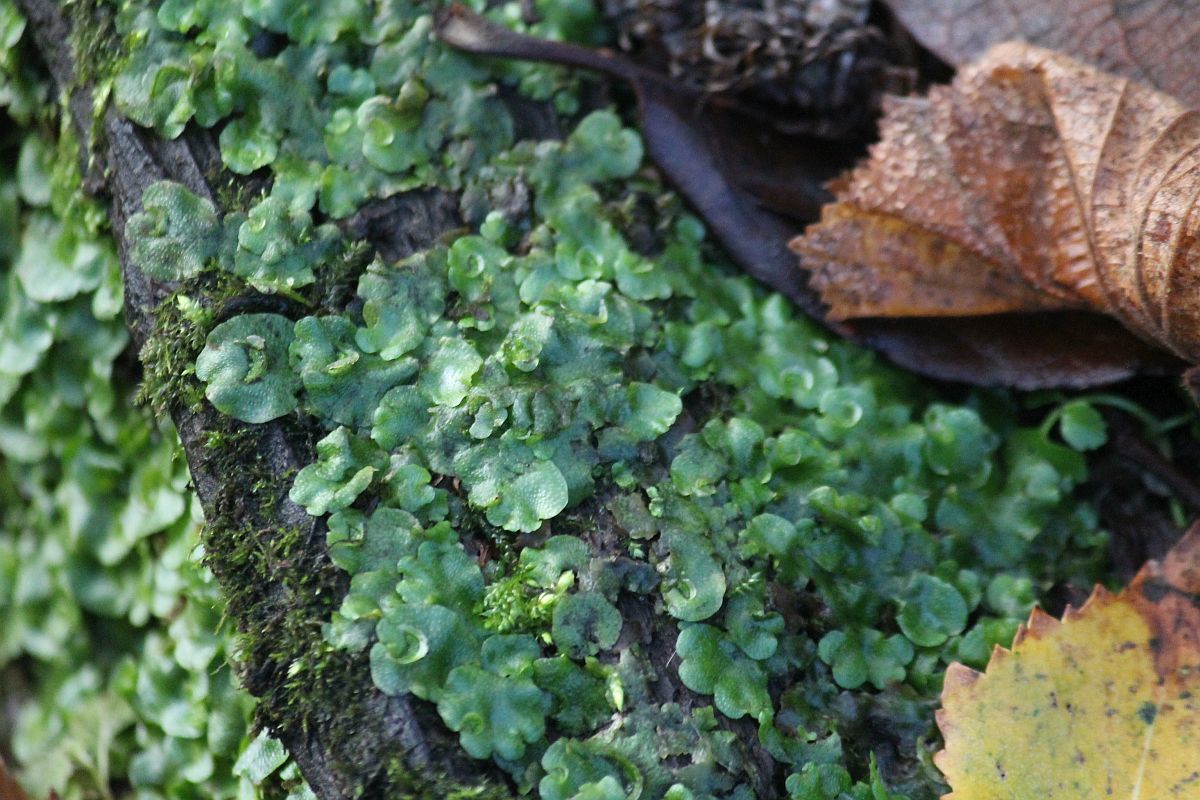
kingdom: Plantae
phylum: Marchantiophyta
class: Marchantiopsida
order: Lunulariales
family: Lunulariaceae
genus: Lunularia
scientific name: Lunularia cruciata
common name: Crescent-cup liverwort
